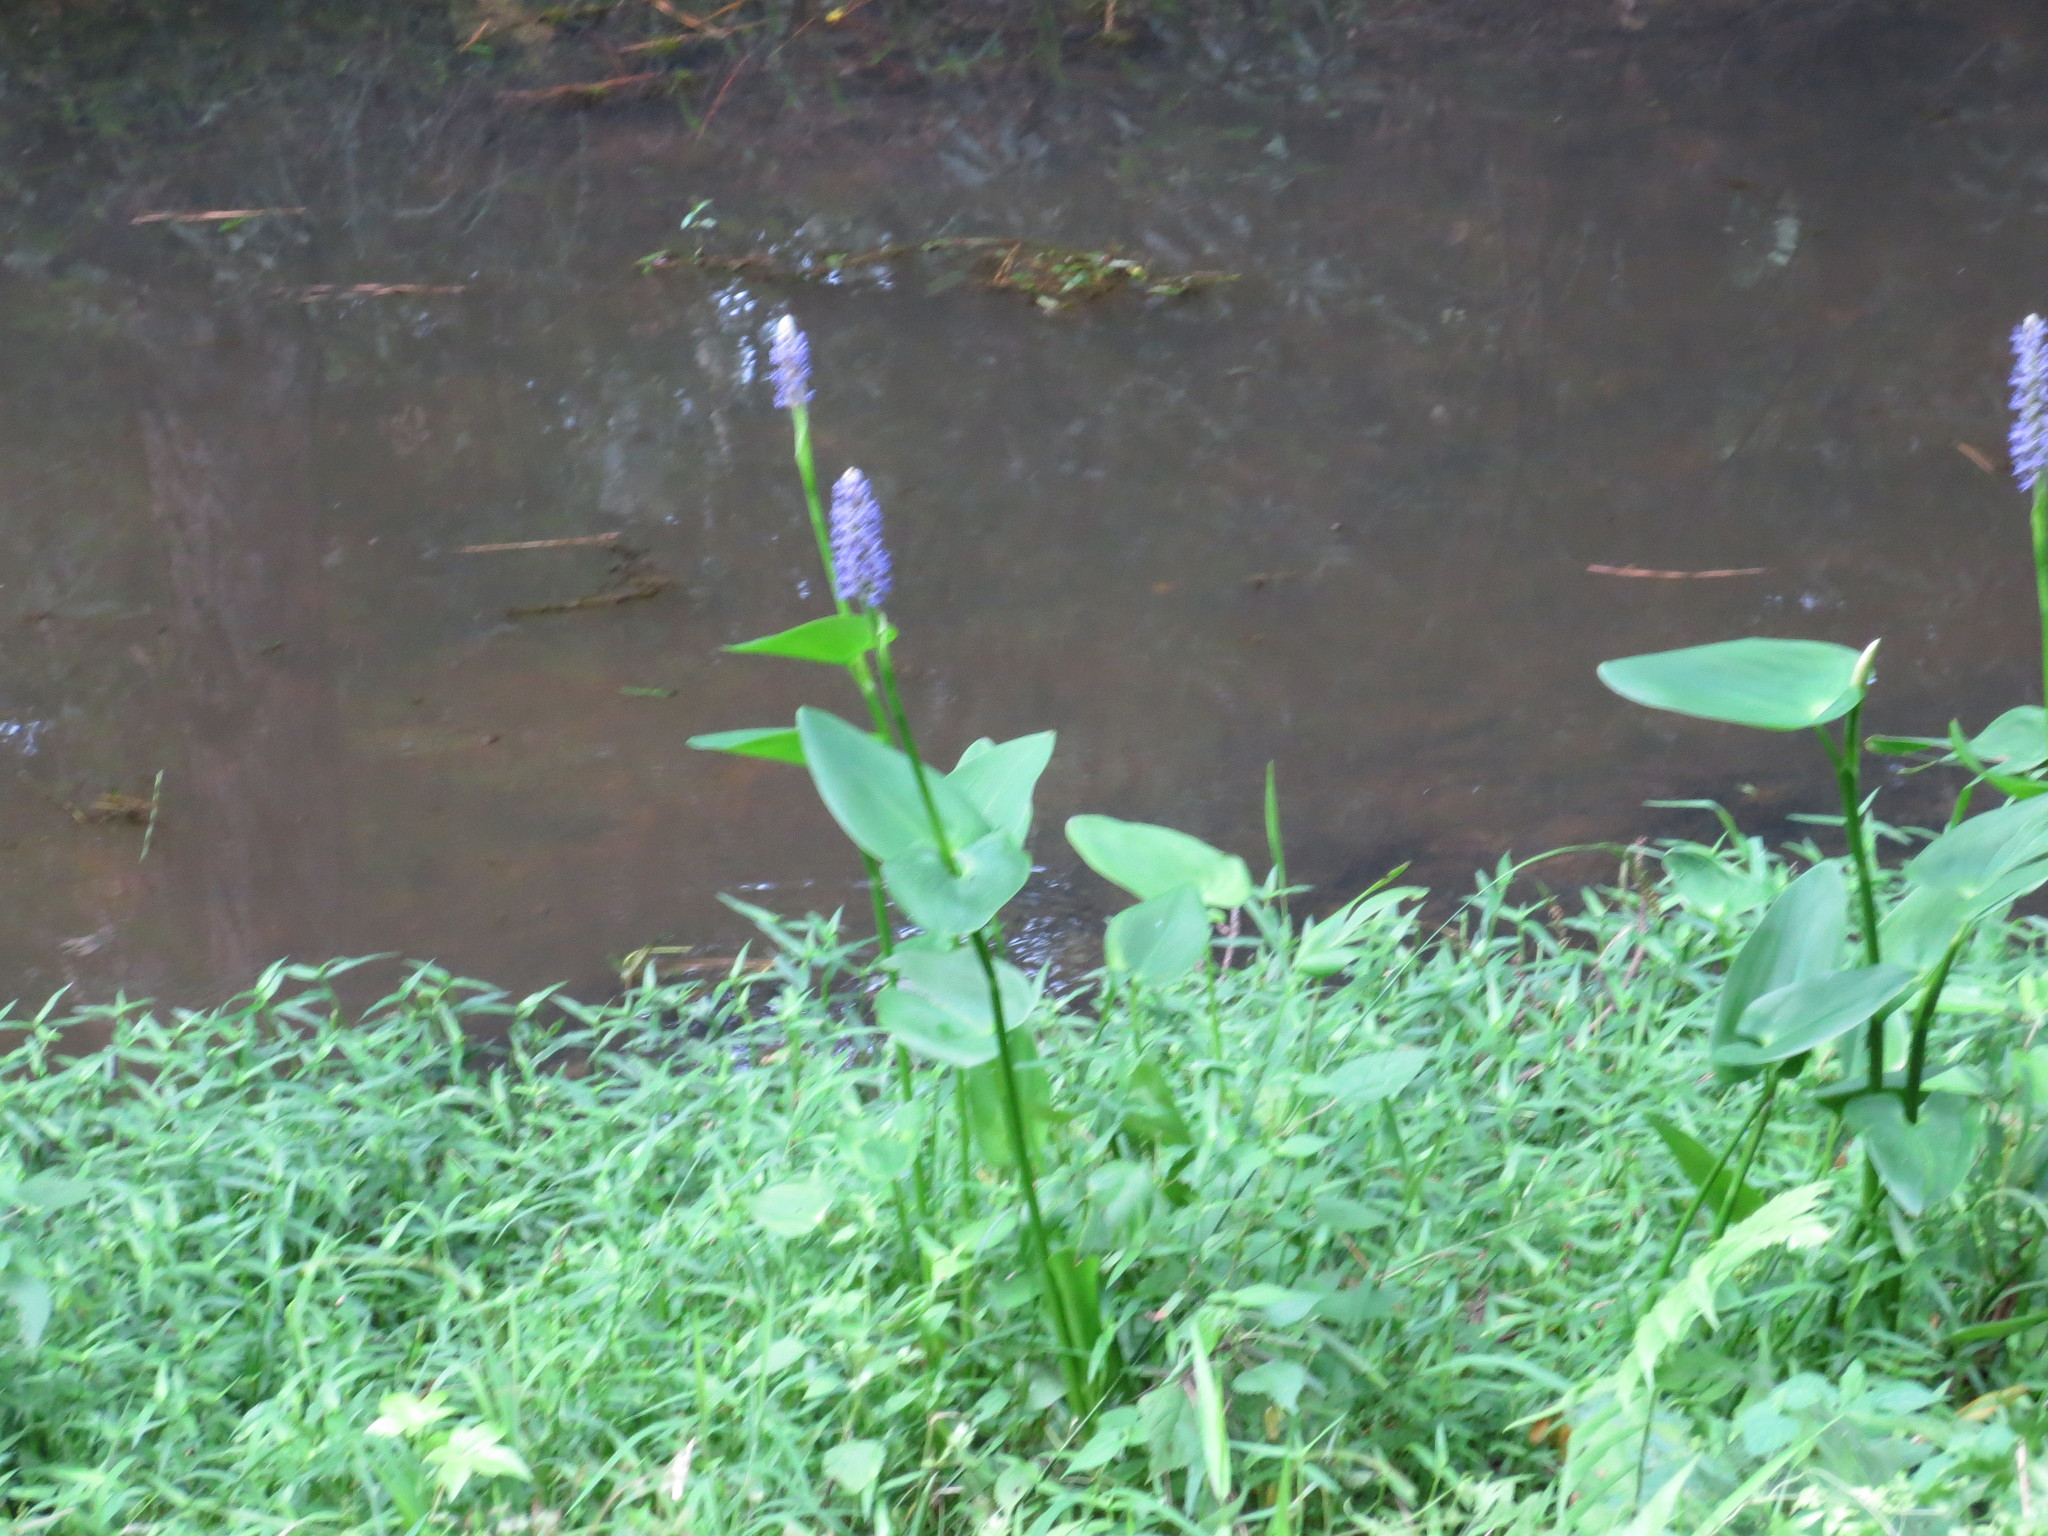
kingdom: Plantae
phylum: Tracheophyta
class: Liliopsida
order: Commelinales
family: Pontederiaceae
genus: Pontederia
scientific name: Pontederia cordata
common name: Pickerelweed
